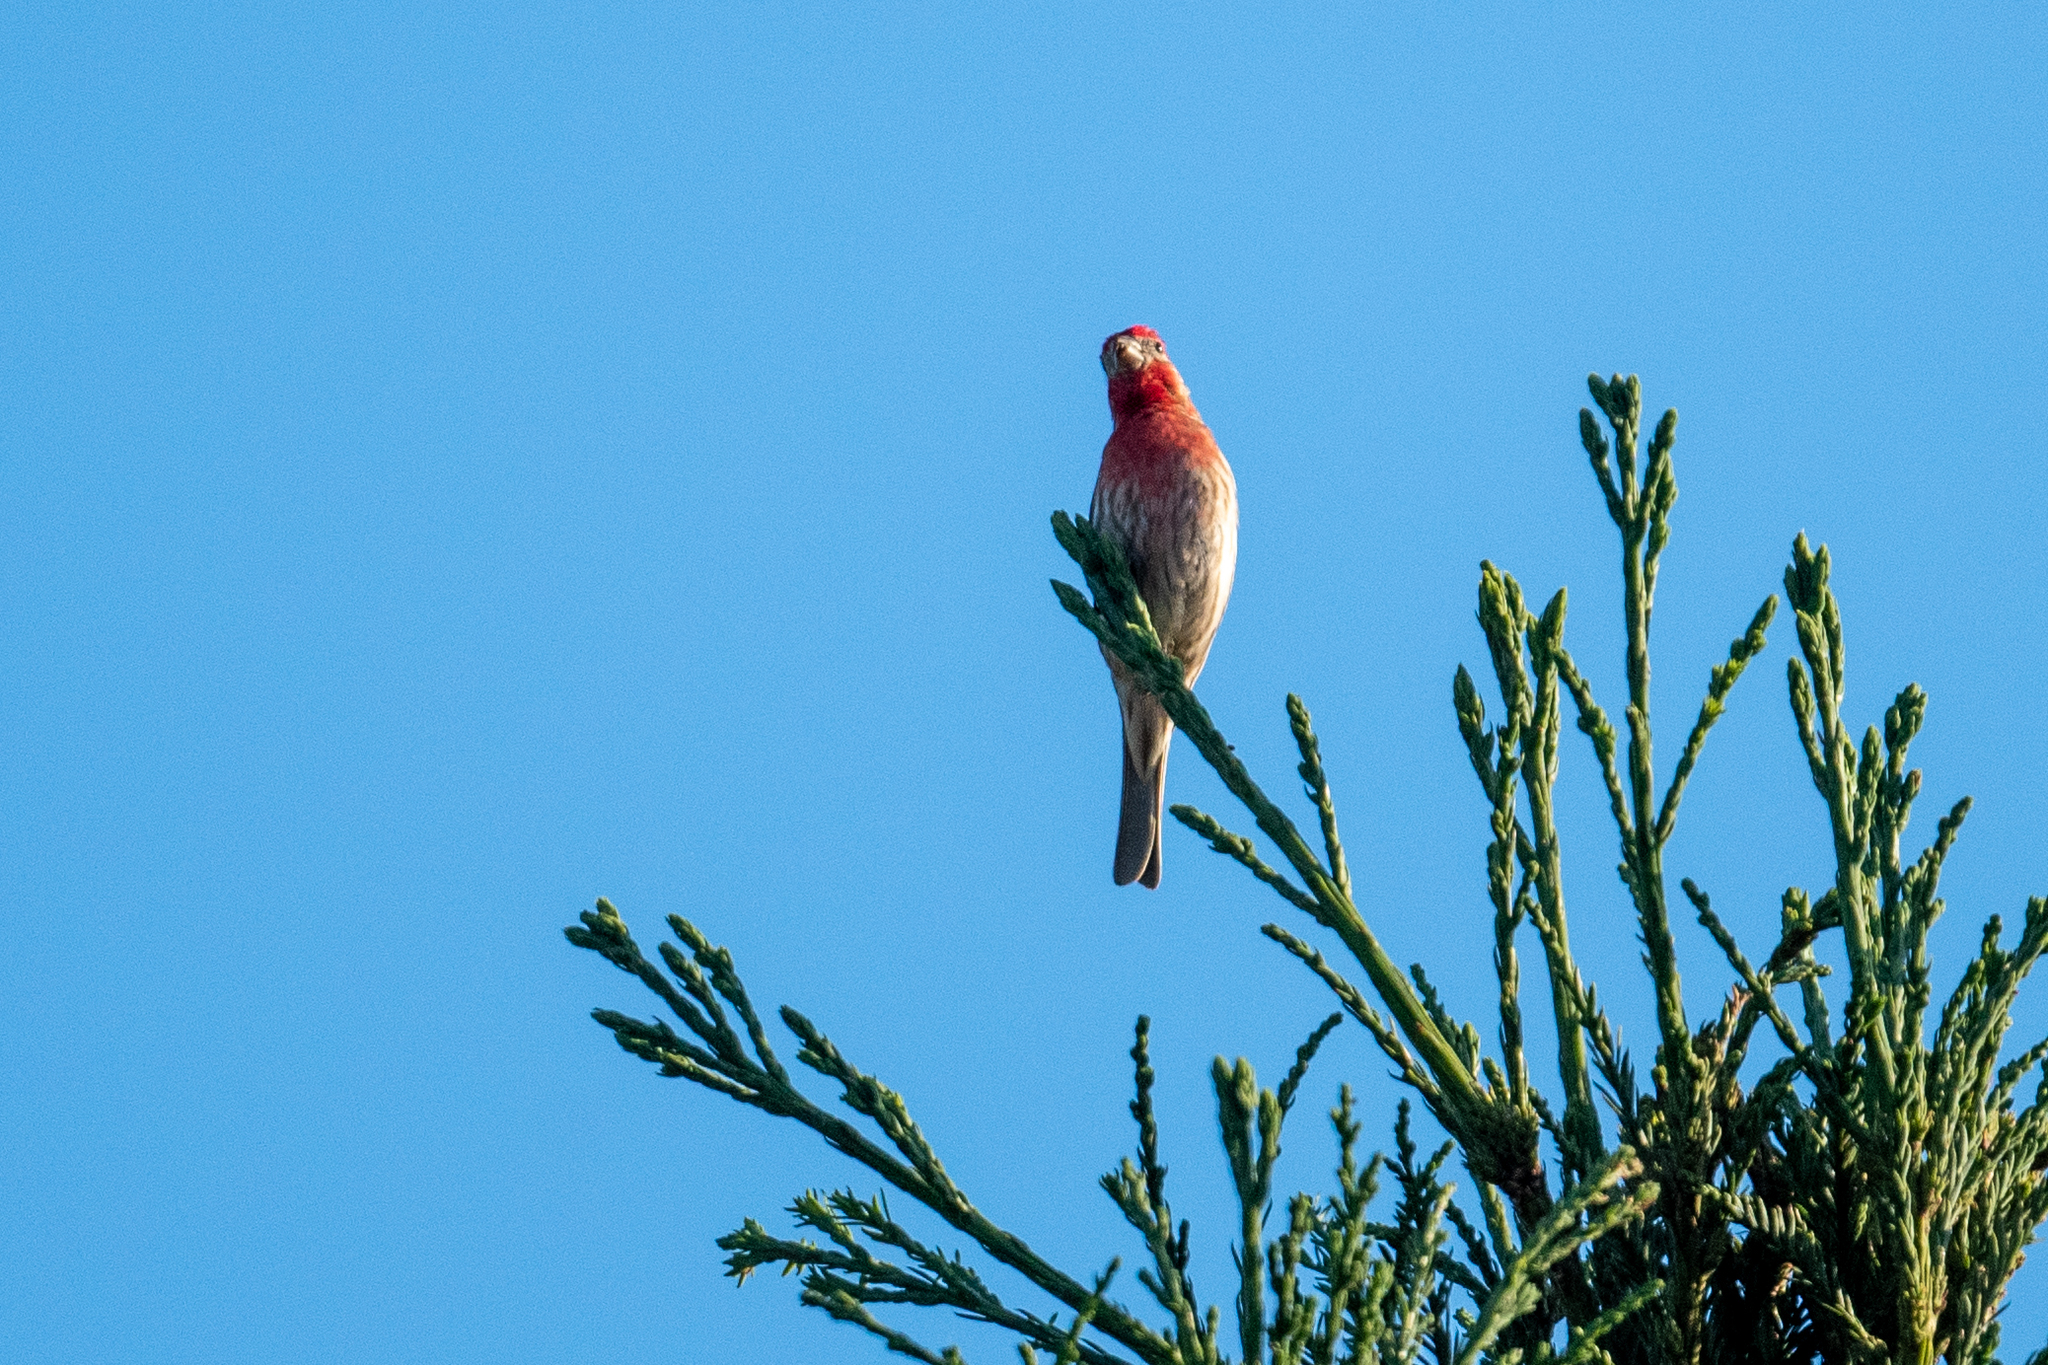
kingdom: Animalia
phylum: Chordata
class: Aves
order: Passeriformes
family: Fringillidae
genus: Haemorhous
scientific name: Haemorhous mexicanus
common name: House finch
